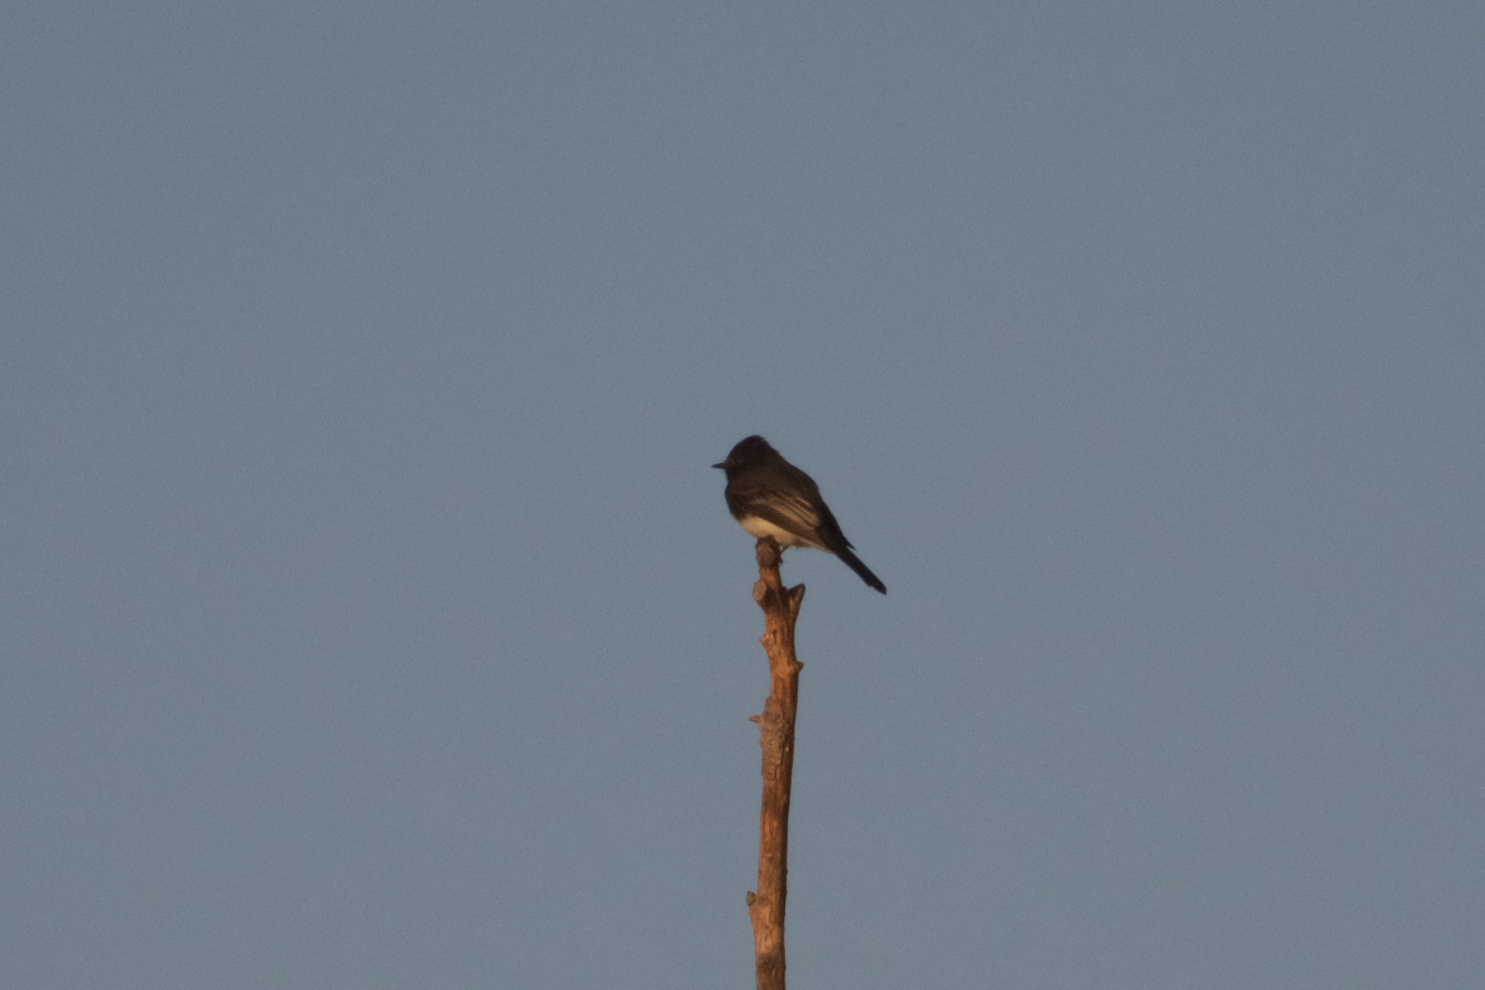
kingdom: Animalia
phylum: Chordata
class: Aves
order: Passeriformes
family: Tyrannidae
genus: Sayornis
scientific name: Sayornis nigricans
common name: Black phoebe
